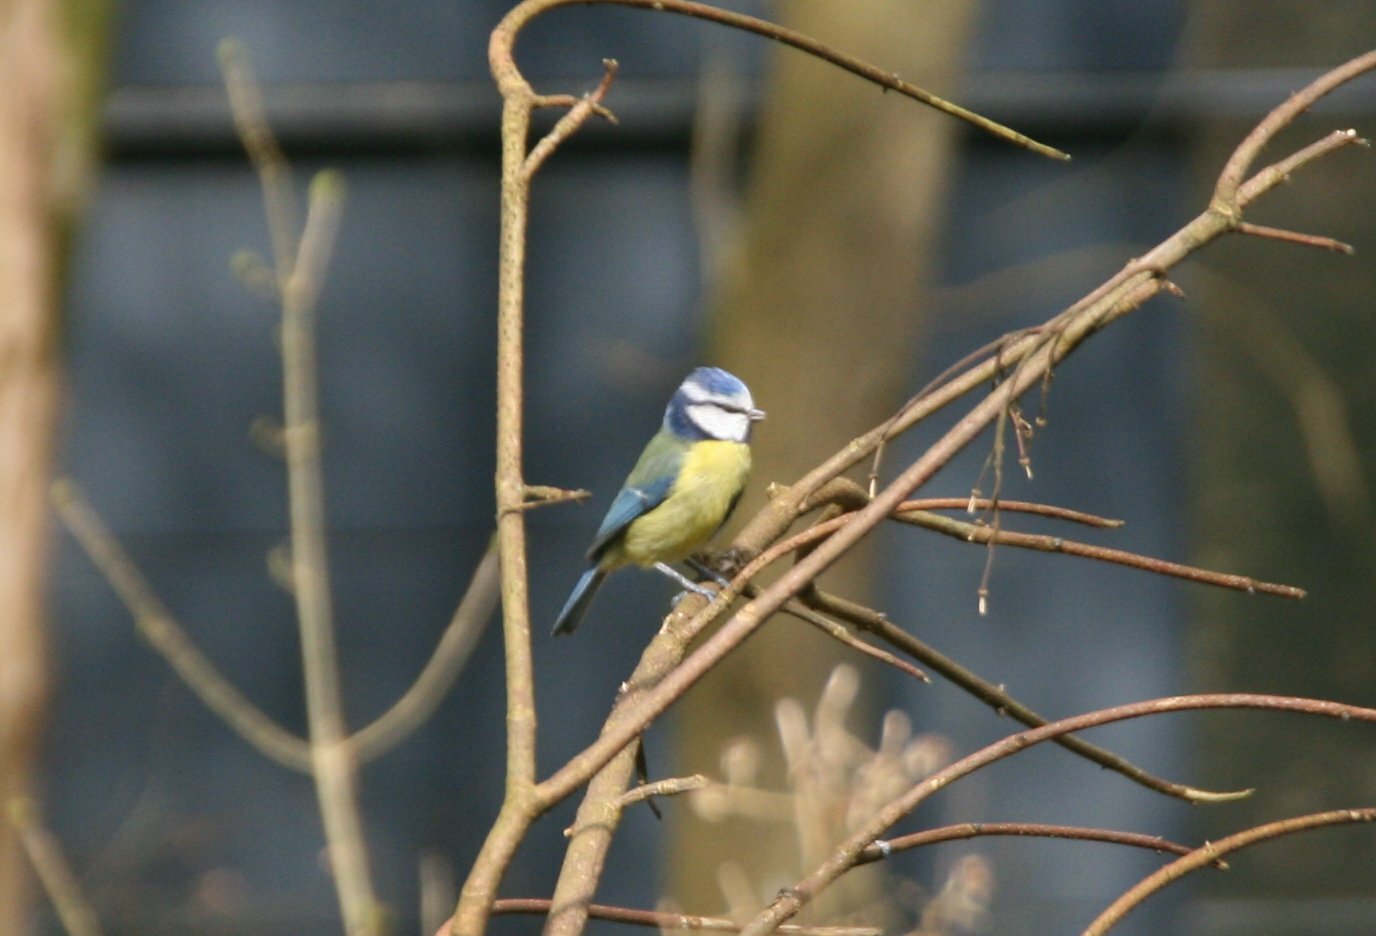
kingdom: Animalia
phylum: Chordata
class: Aves
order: Passeriformes
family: Paridae
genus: Cyanistes
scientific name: Cyanistes caeruleus
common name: Eurasian blue tit
